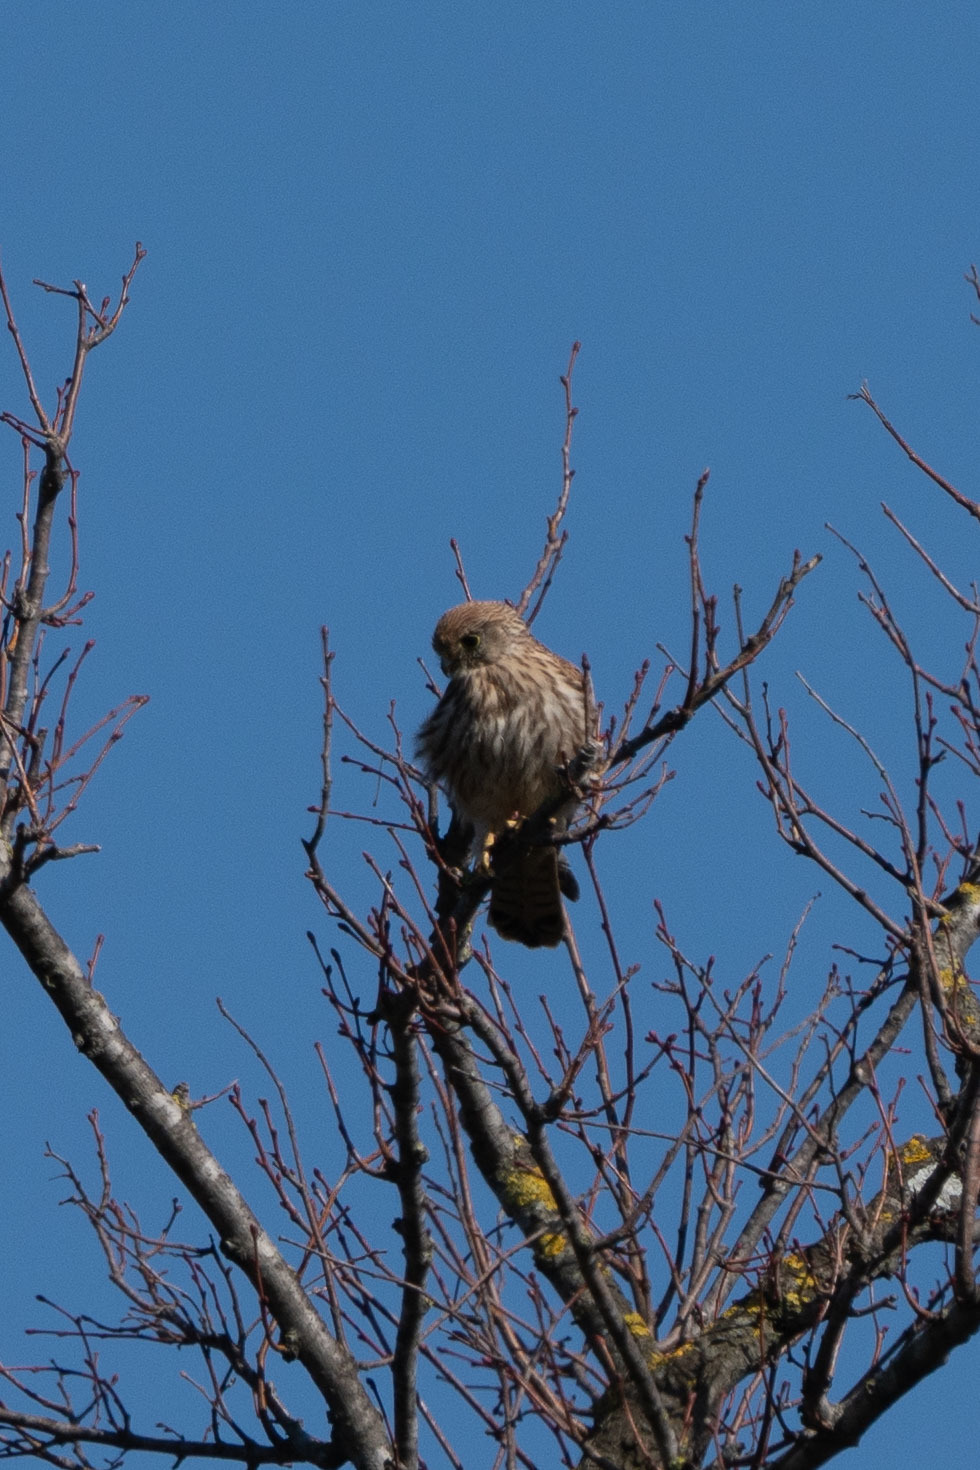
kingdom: Animalia
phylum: Chordata
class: Aves
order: Falconiformes
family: Falconidae
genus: Falco
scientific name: Falco tinnunculus
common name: Common kestrel
